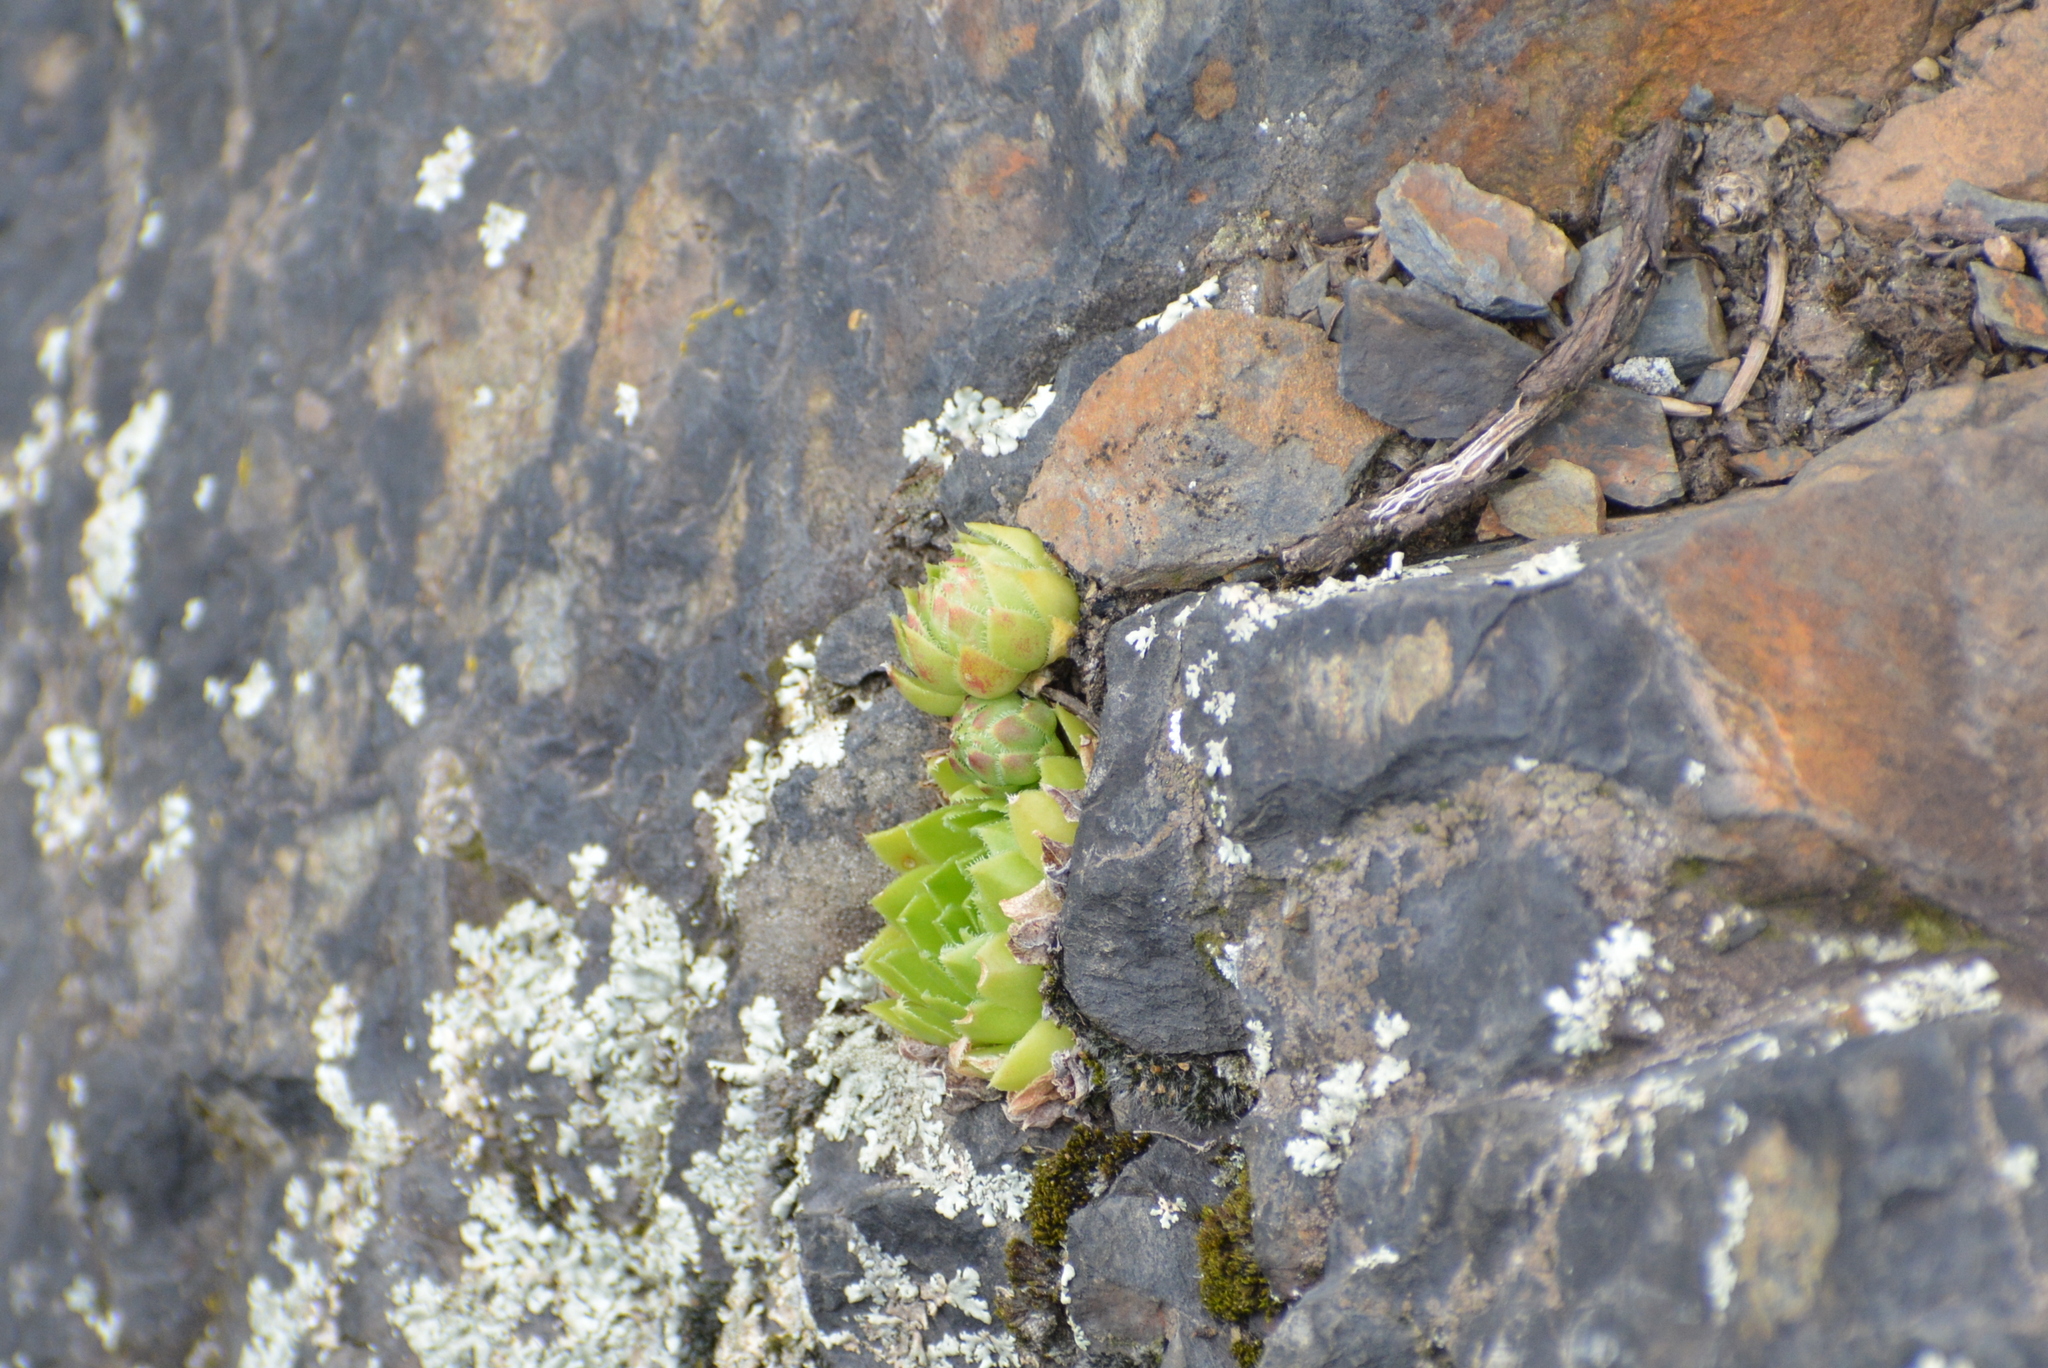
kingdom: Plantae
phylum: Tracheophyta
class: Magnoliopsida
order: Saxifragales
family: Crassulaceae
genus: Sempervivum
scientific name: Sempervivum globiferum
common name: Rolling hen-and-chicks
